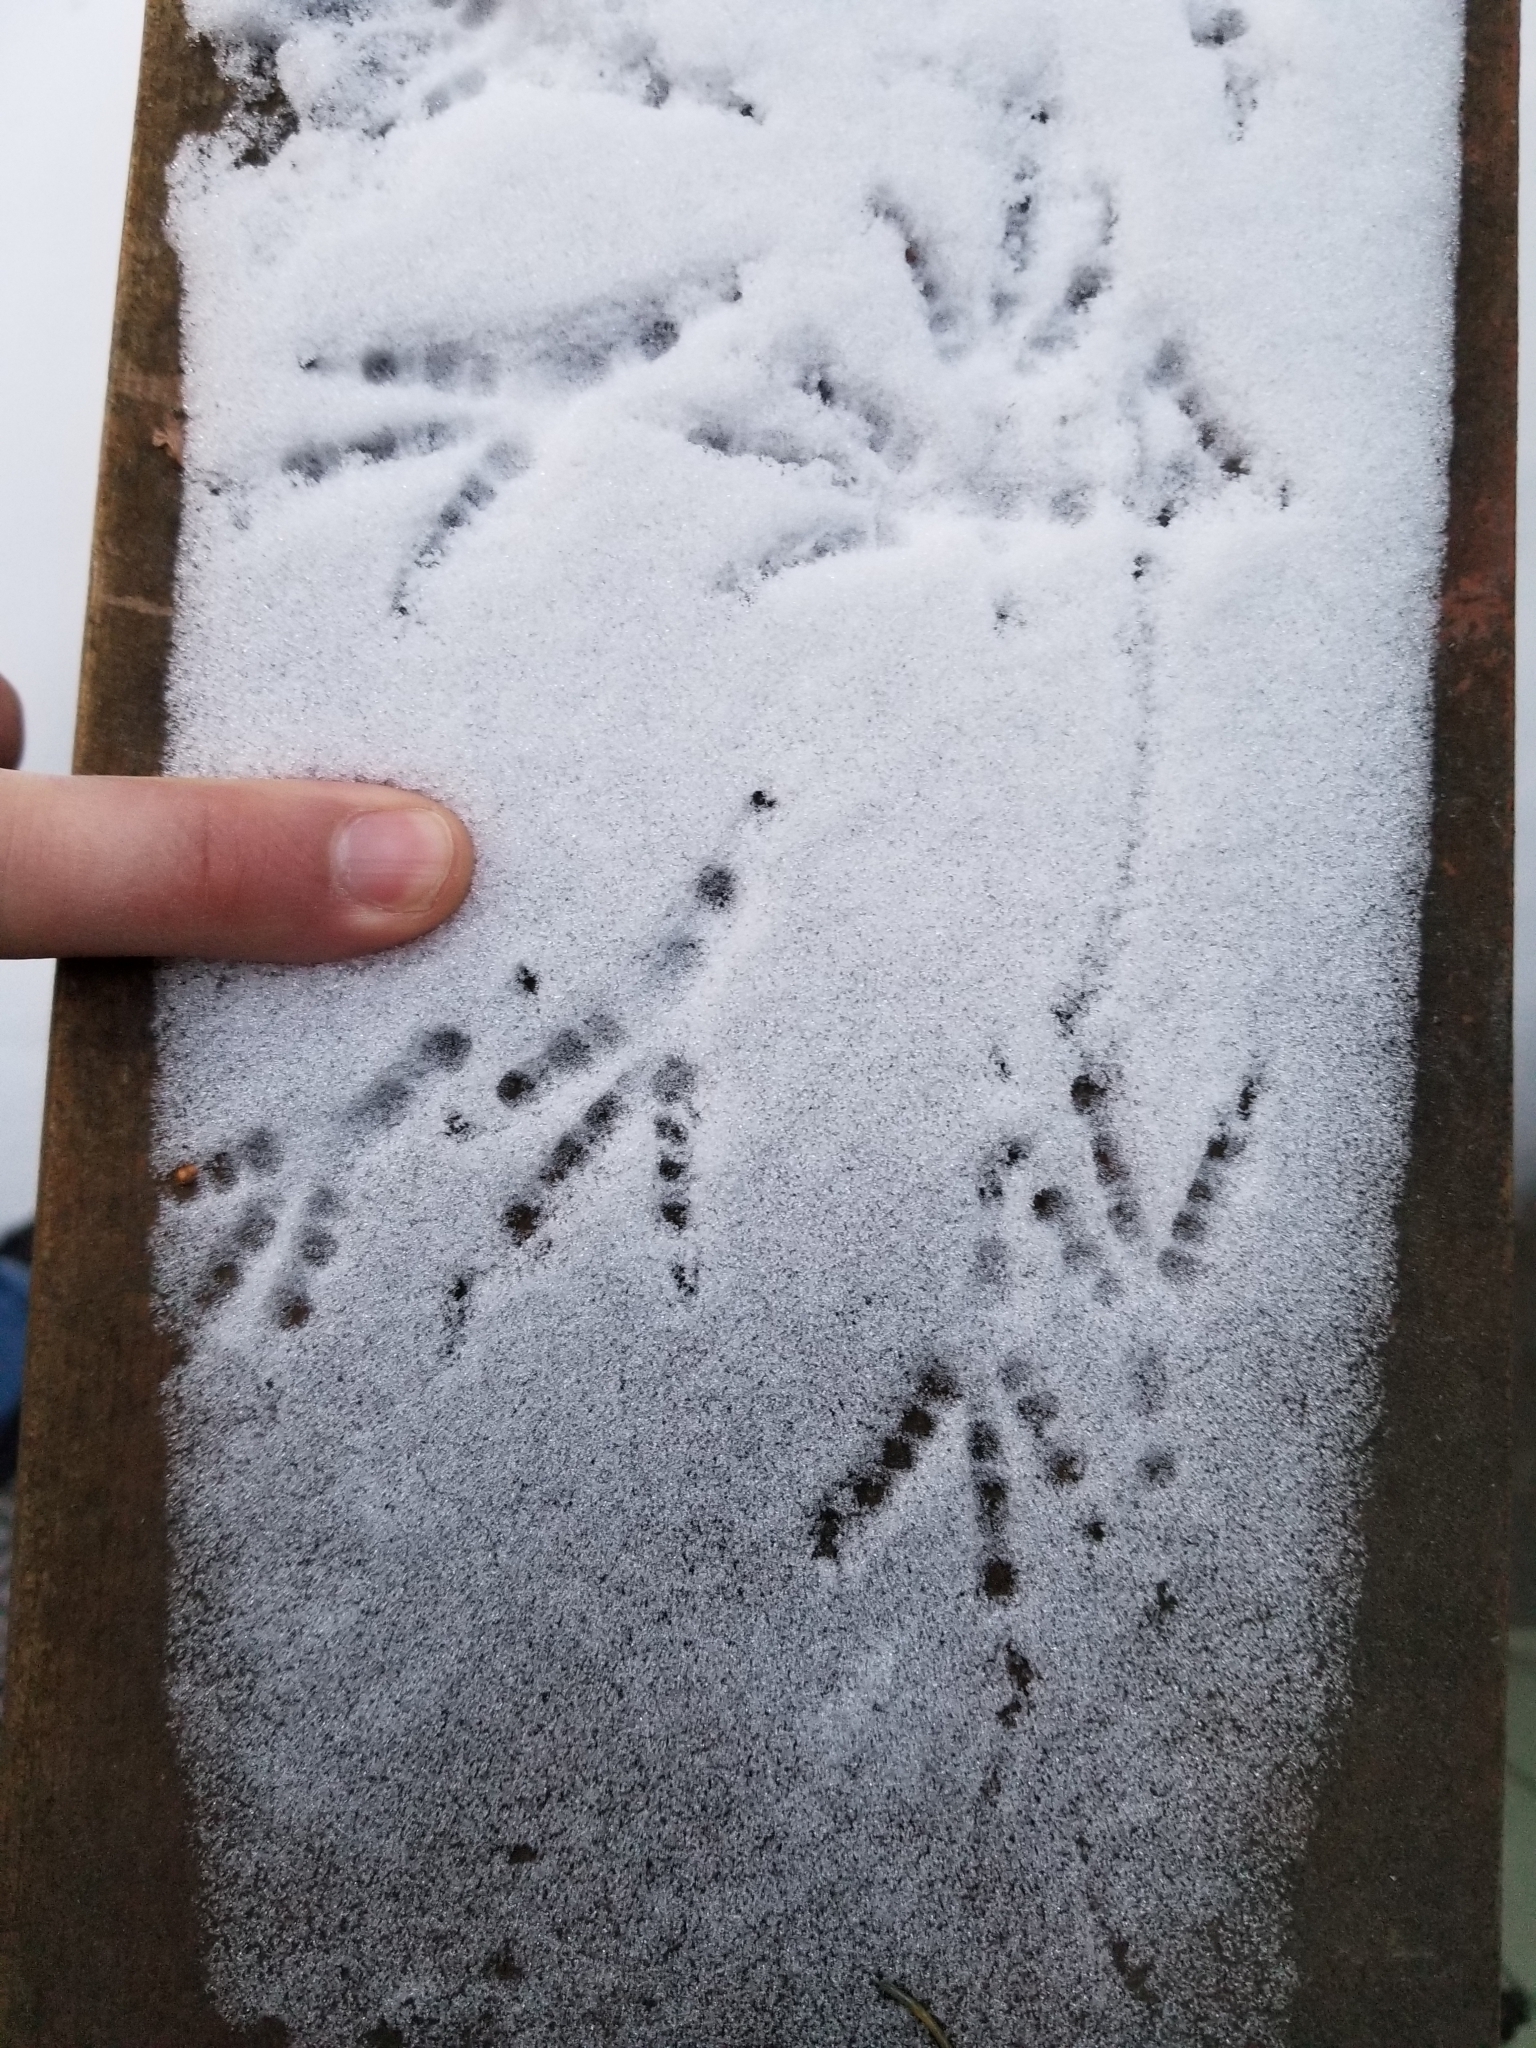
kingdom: Animalia
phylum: Chordata
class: Aves
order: Passeriformes
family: Corvidae
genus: Pica
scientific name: Pica hudsonia
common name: Black-billed magpie
